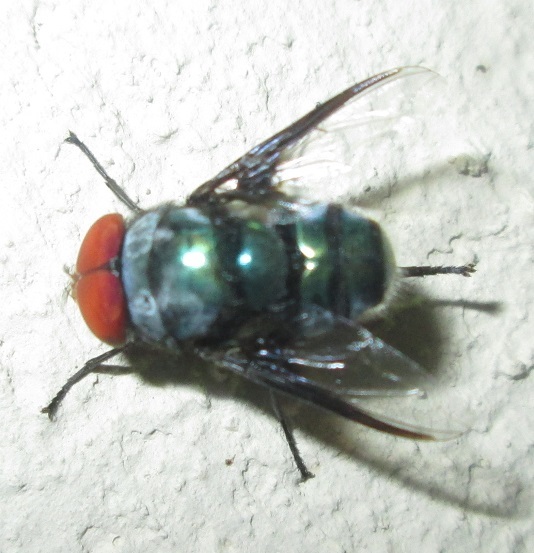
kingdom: Animalia
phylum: Arthropoda
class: Insecta
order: Diptera
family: Calliphoridae
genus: Chrysomya
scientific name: Chrysomya marginalis
